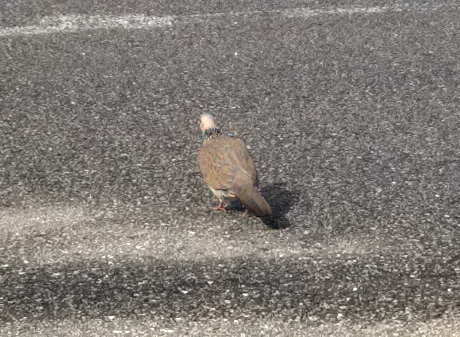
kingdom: Animalia
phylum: Chordata
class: Aves
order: Columbiformes
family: Columbidae
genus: Spilopelia
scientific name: Spilopelia chinensis
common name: Spotted dove
